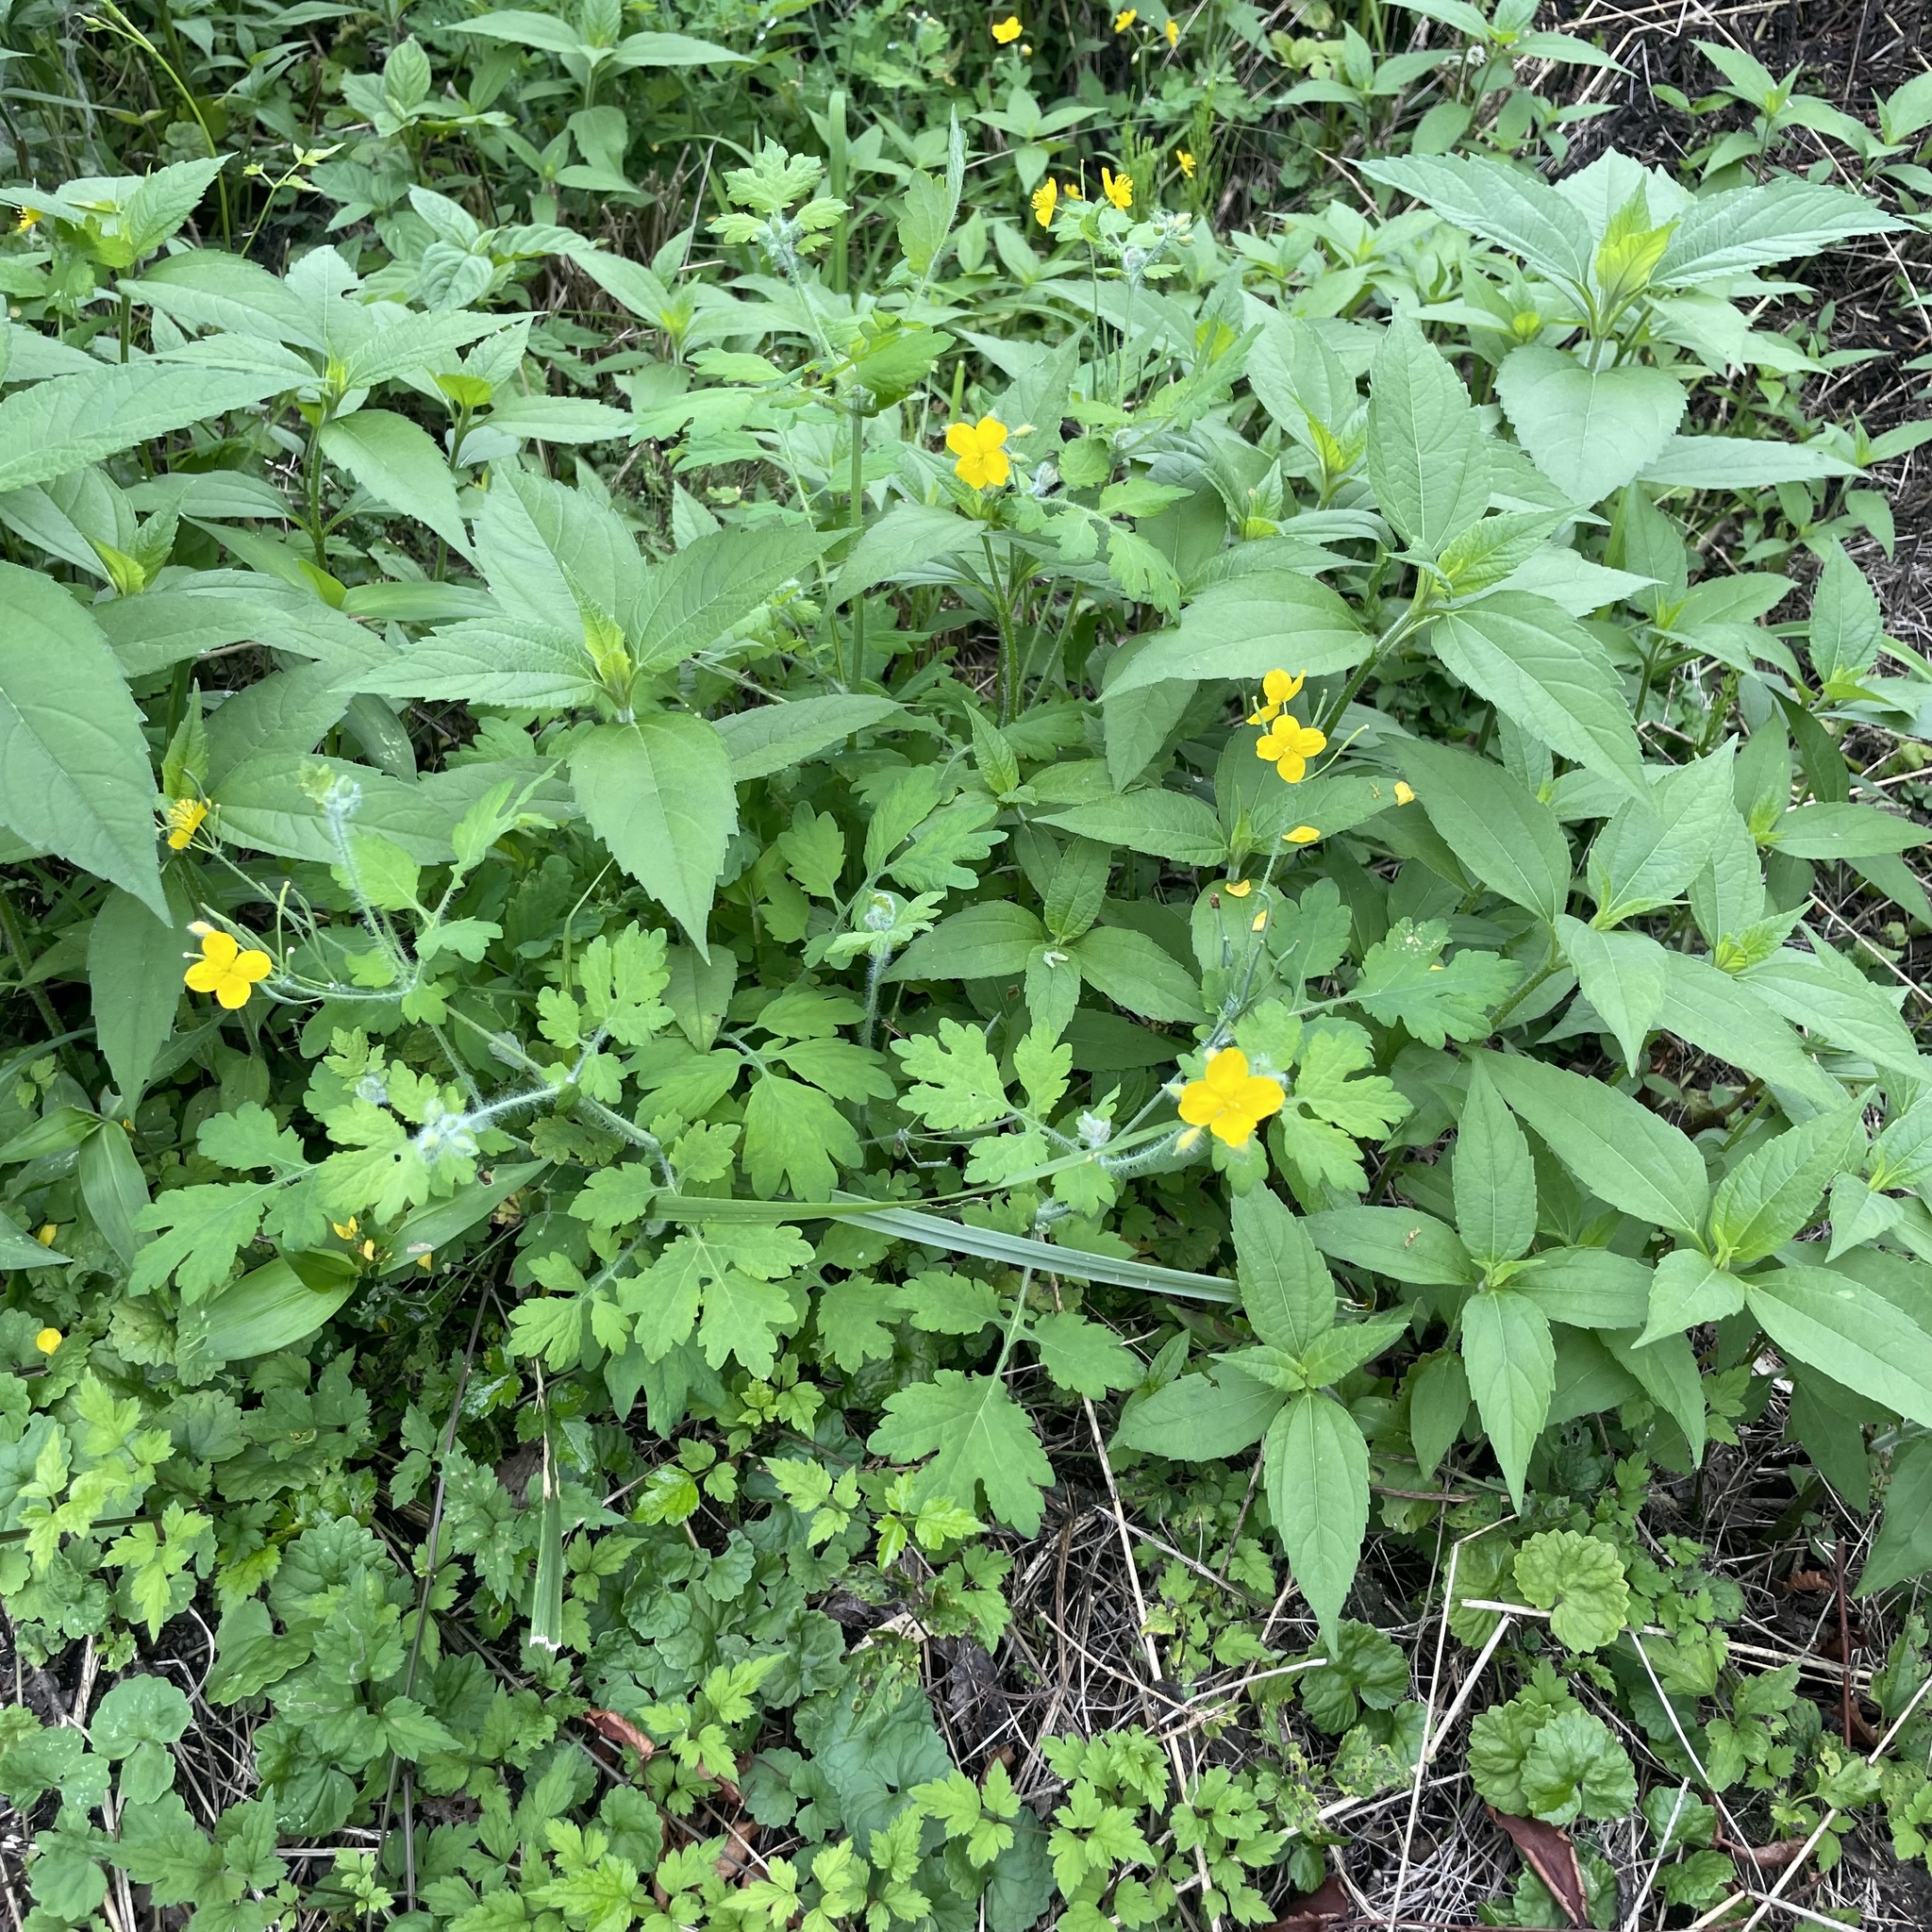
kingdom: Plantae
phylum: Tracheophyta
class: Magnoliopsida
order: Ranunculales
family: Papaveraceae
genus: Chelidonium
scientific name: Chelidonium majus
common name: Greater celandine
